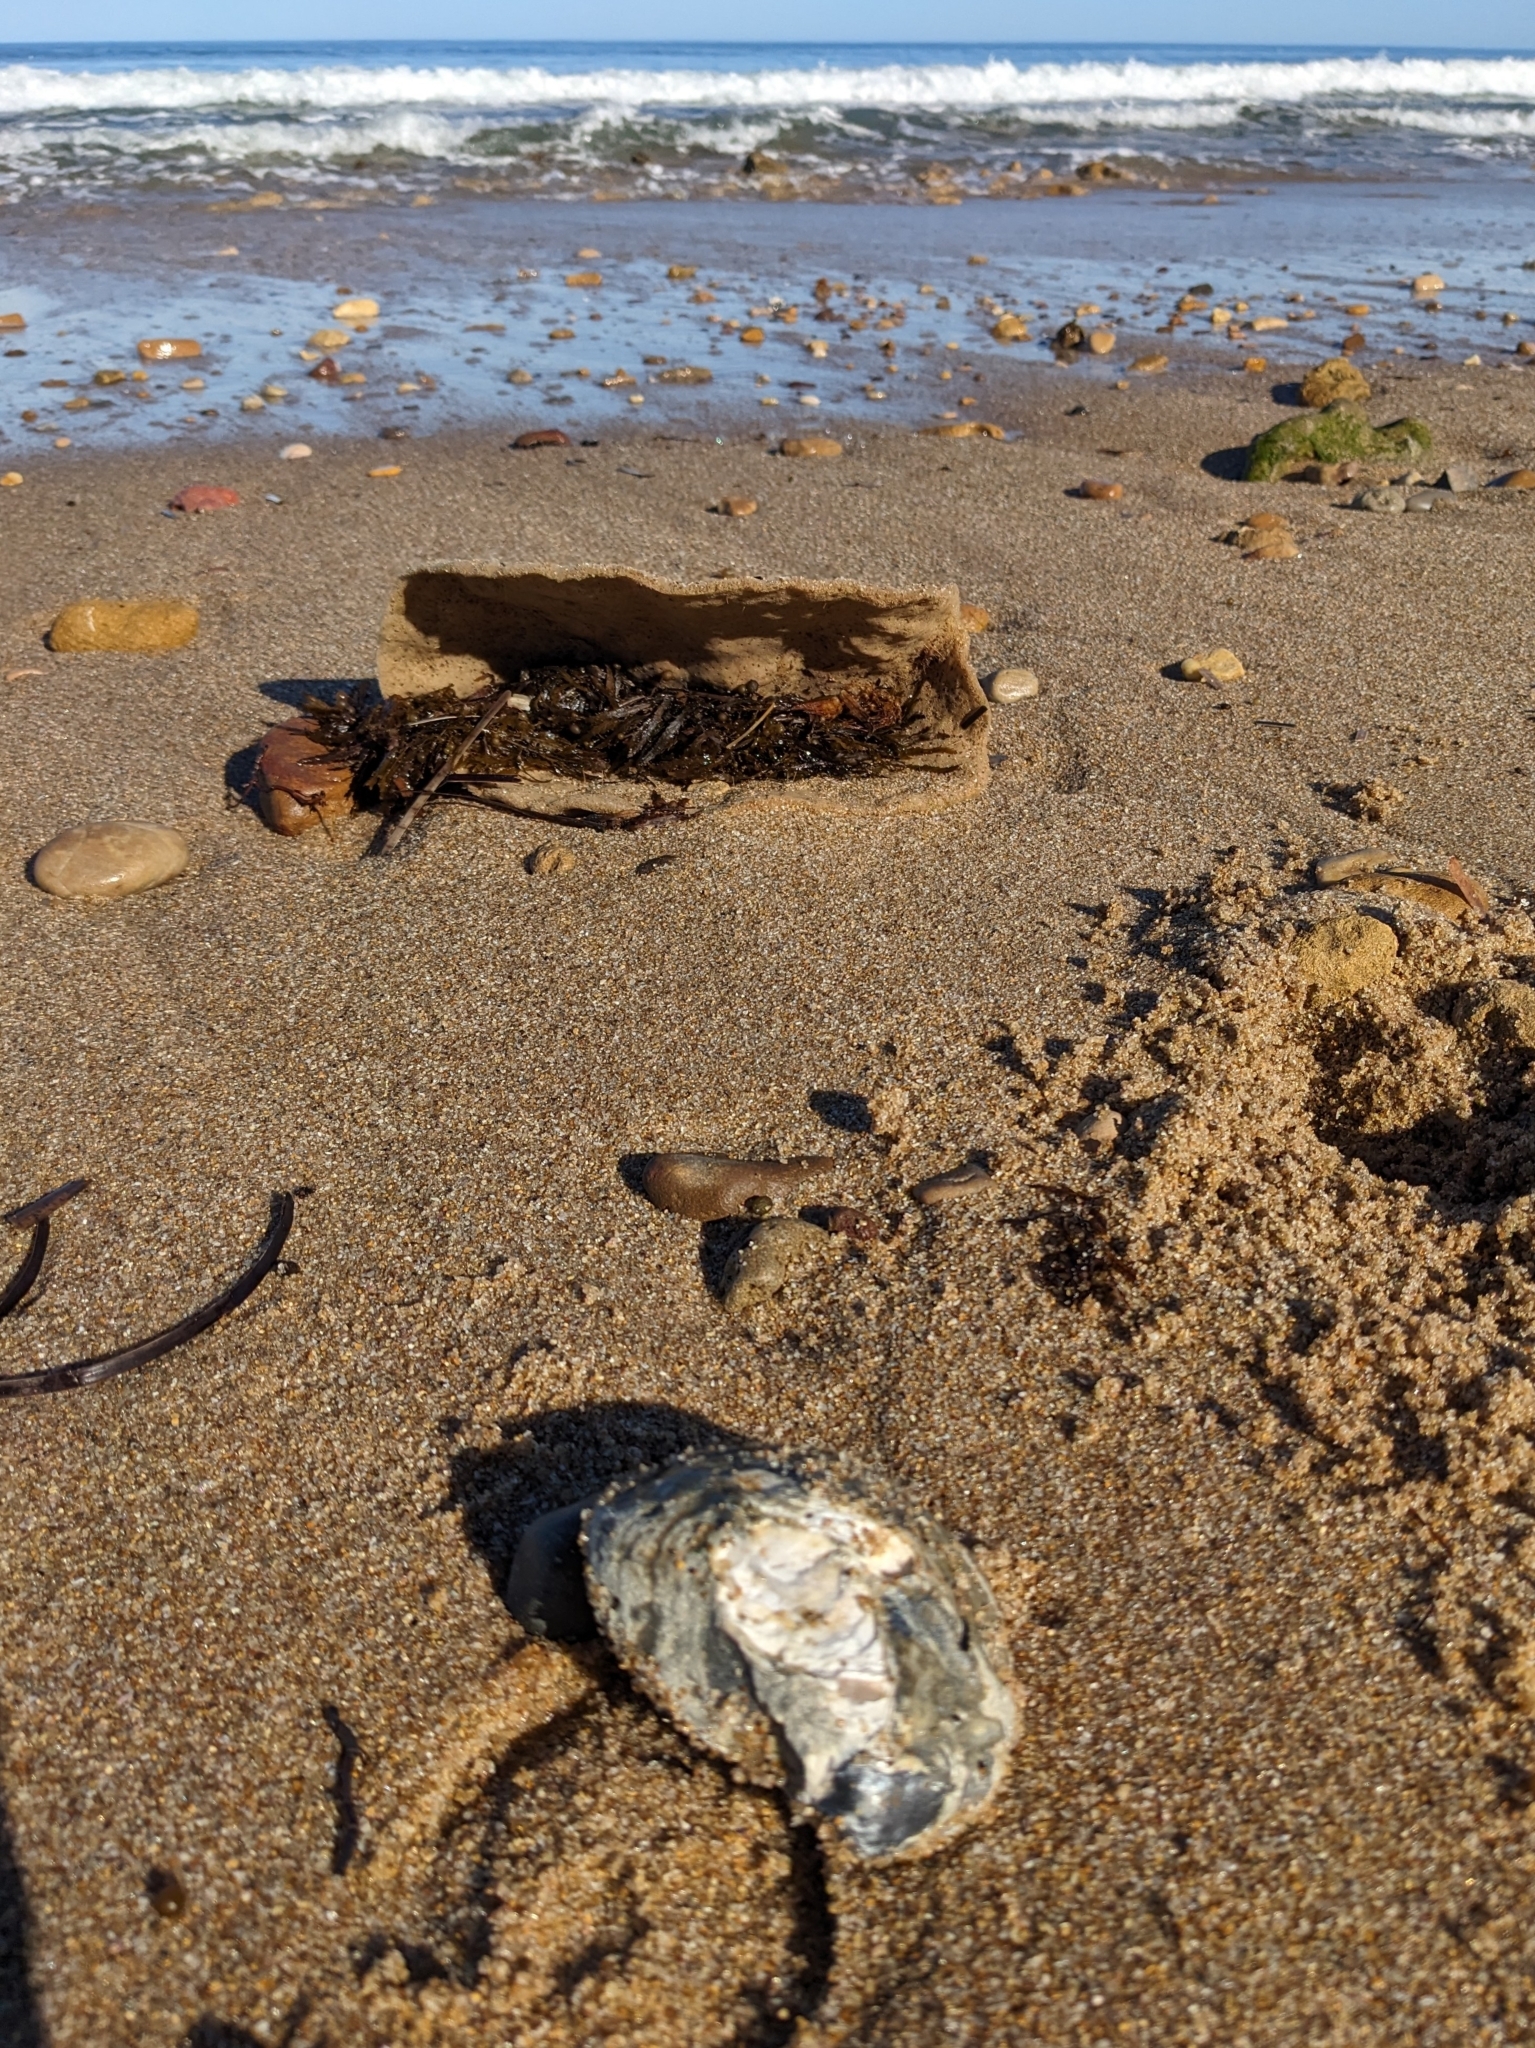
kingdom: Animalia
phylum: Mollusca
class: Bivalvia
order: Ostreida
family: Ostreidae
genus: Ostrea
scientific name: Ostrea angasi
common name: Angasi oyster
